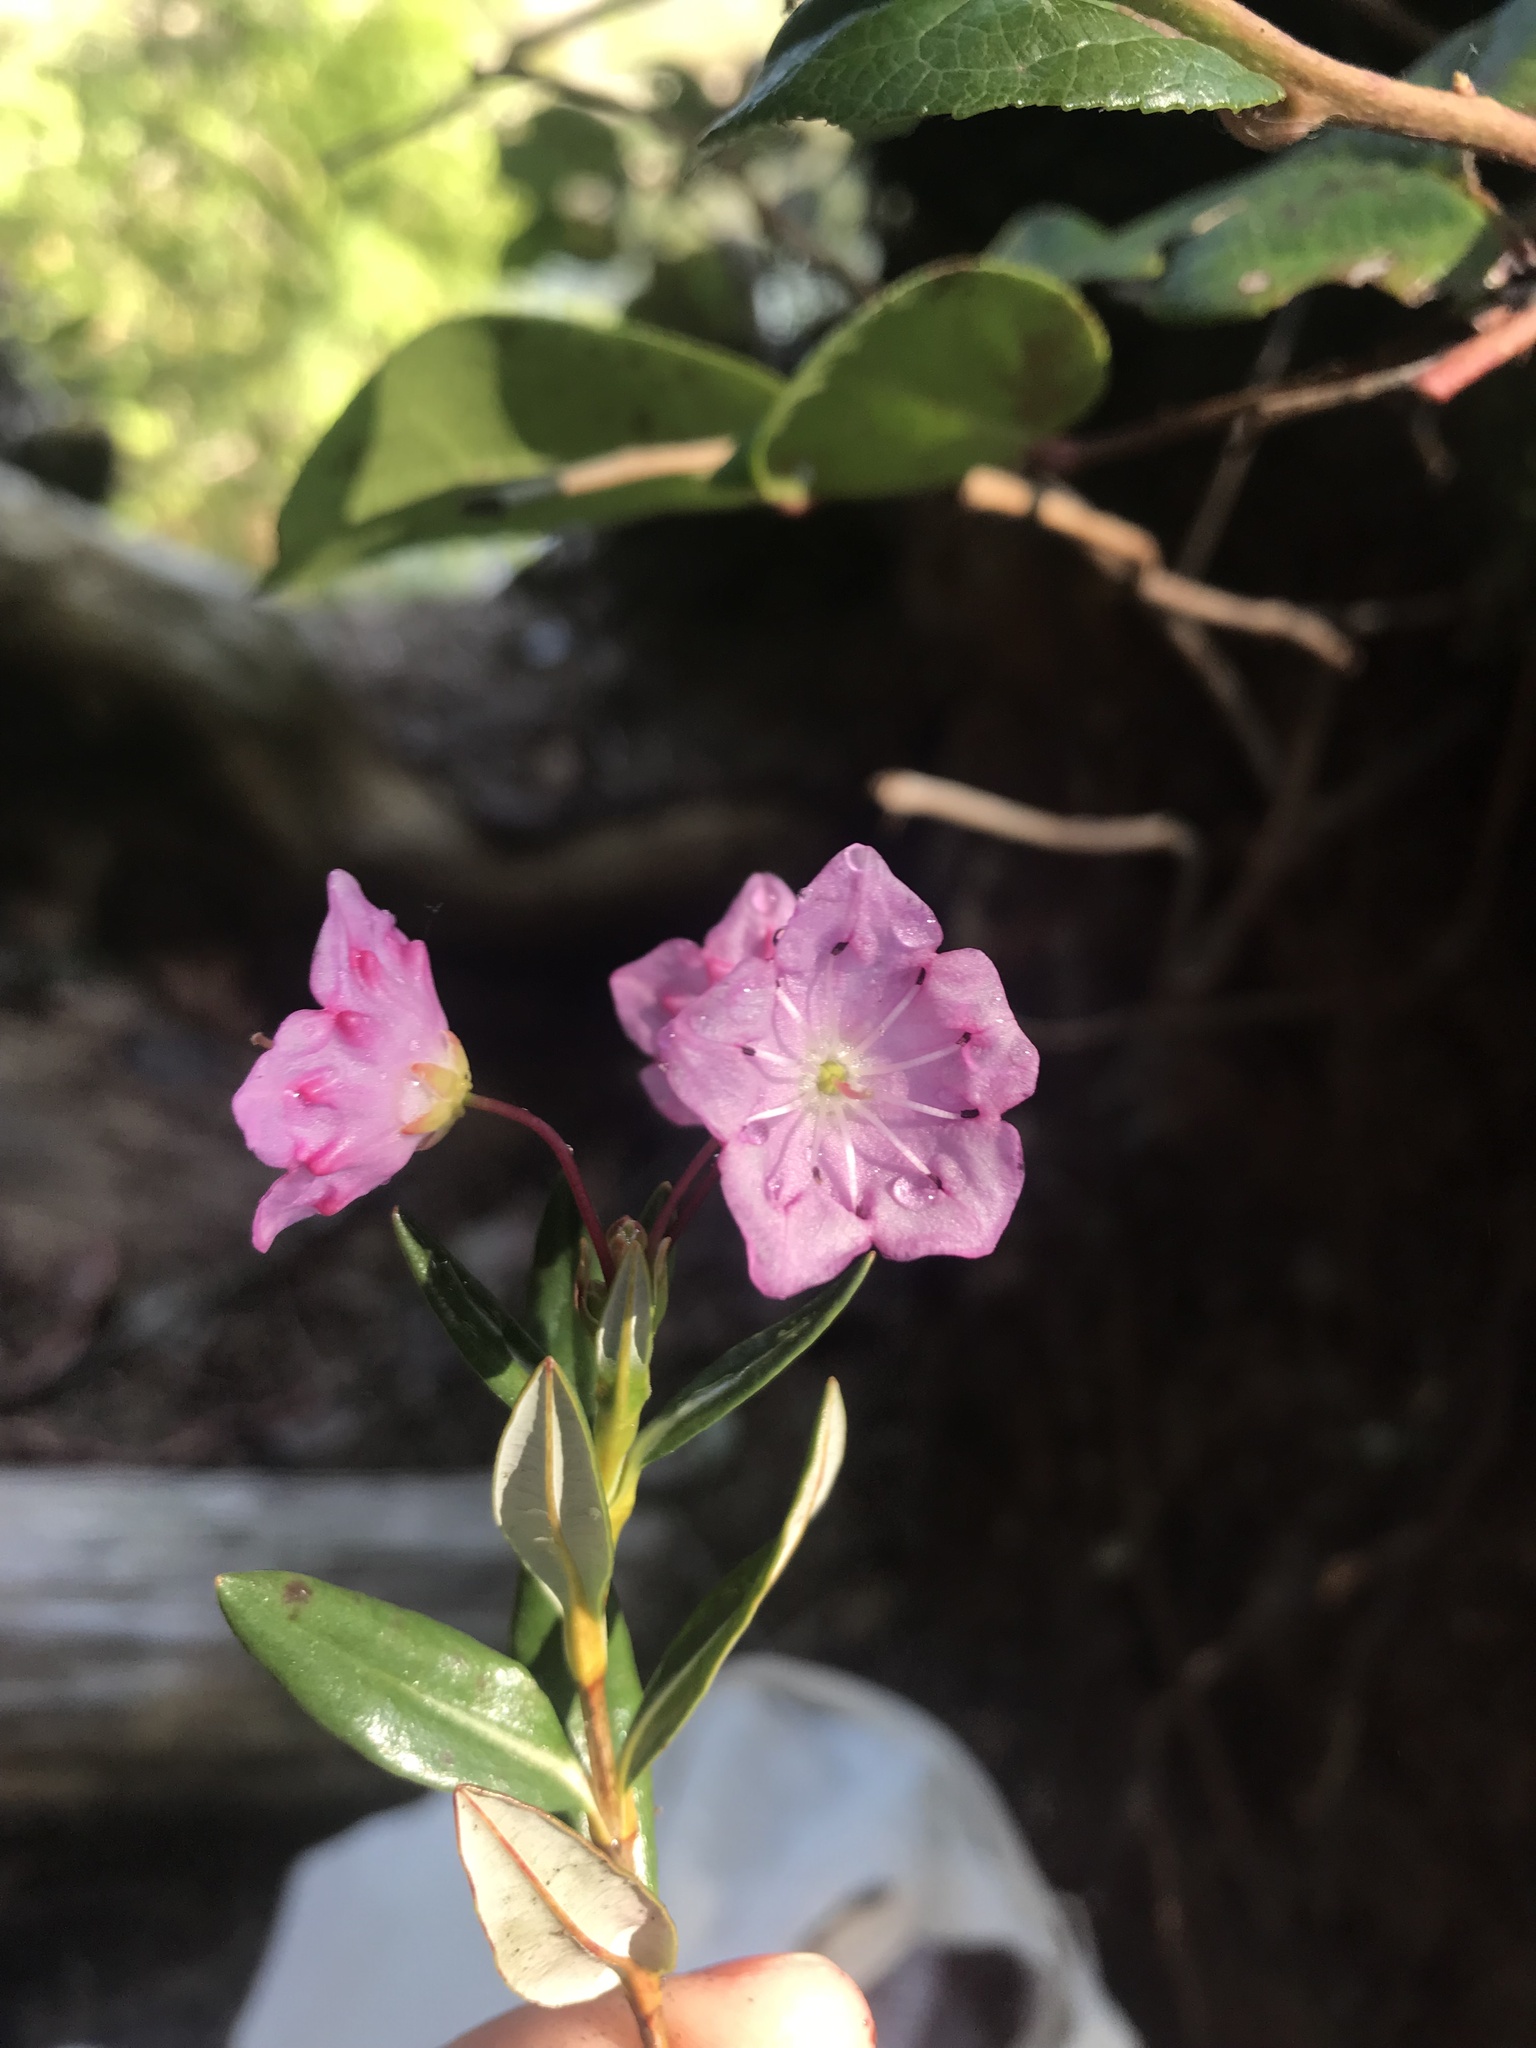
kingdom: Plantae
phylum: Tracheophyta
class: Magnoliopsida
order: Ericales
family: Ericaceae
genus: Kalmia
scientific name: Kalmia microphylla
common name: Alpine bog laurel
